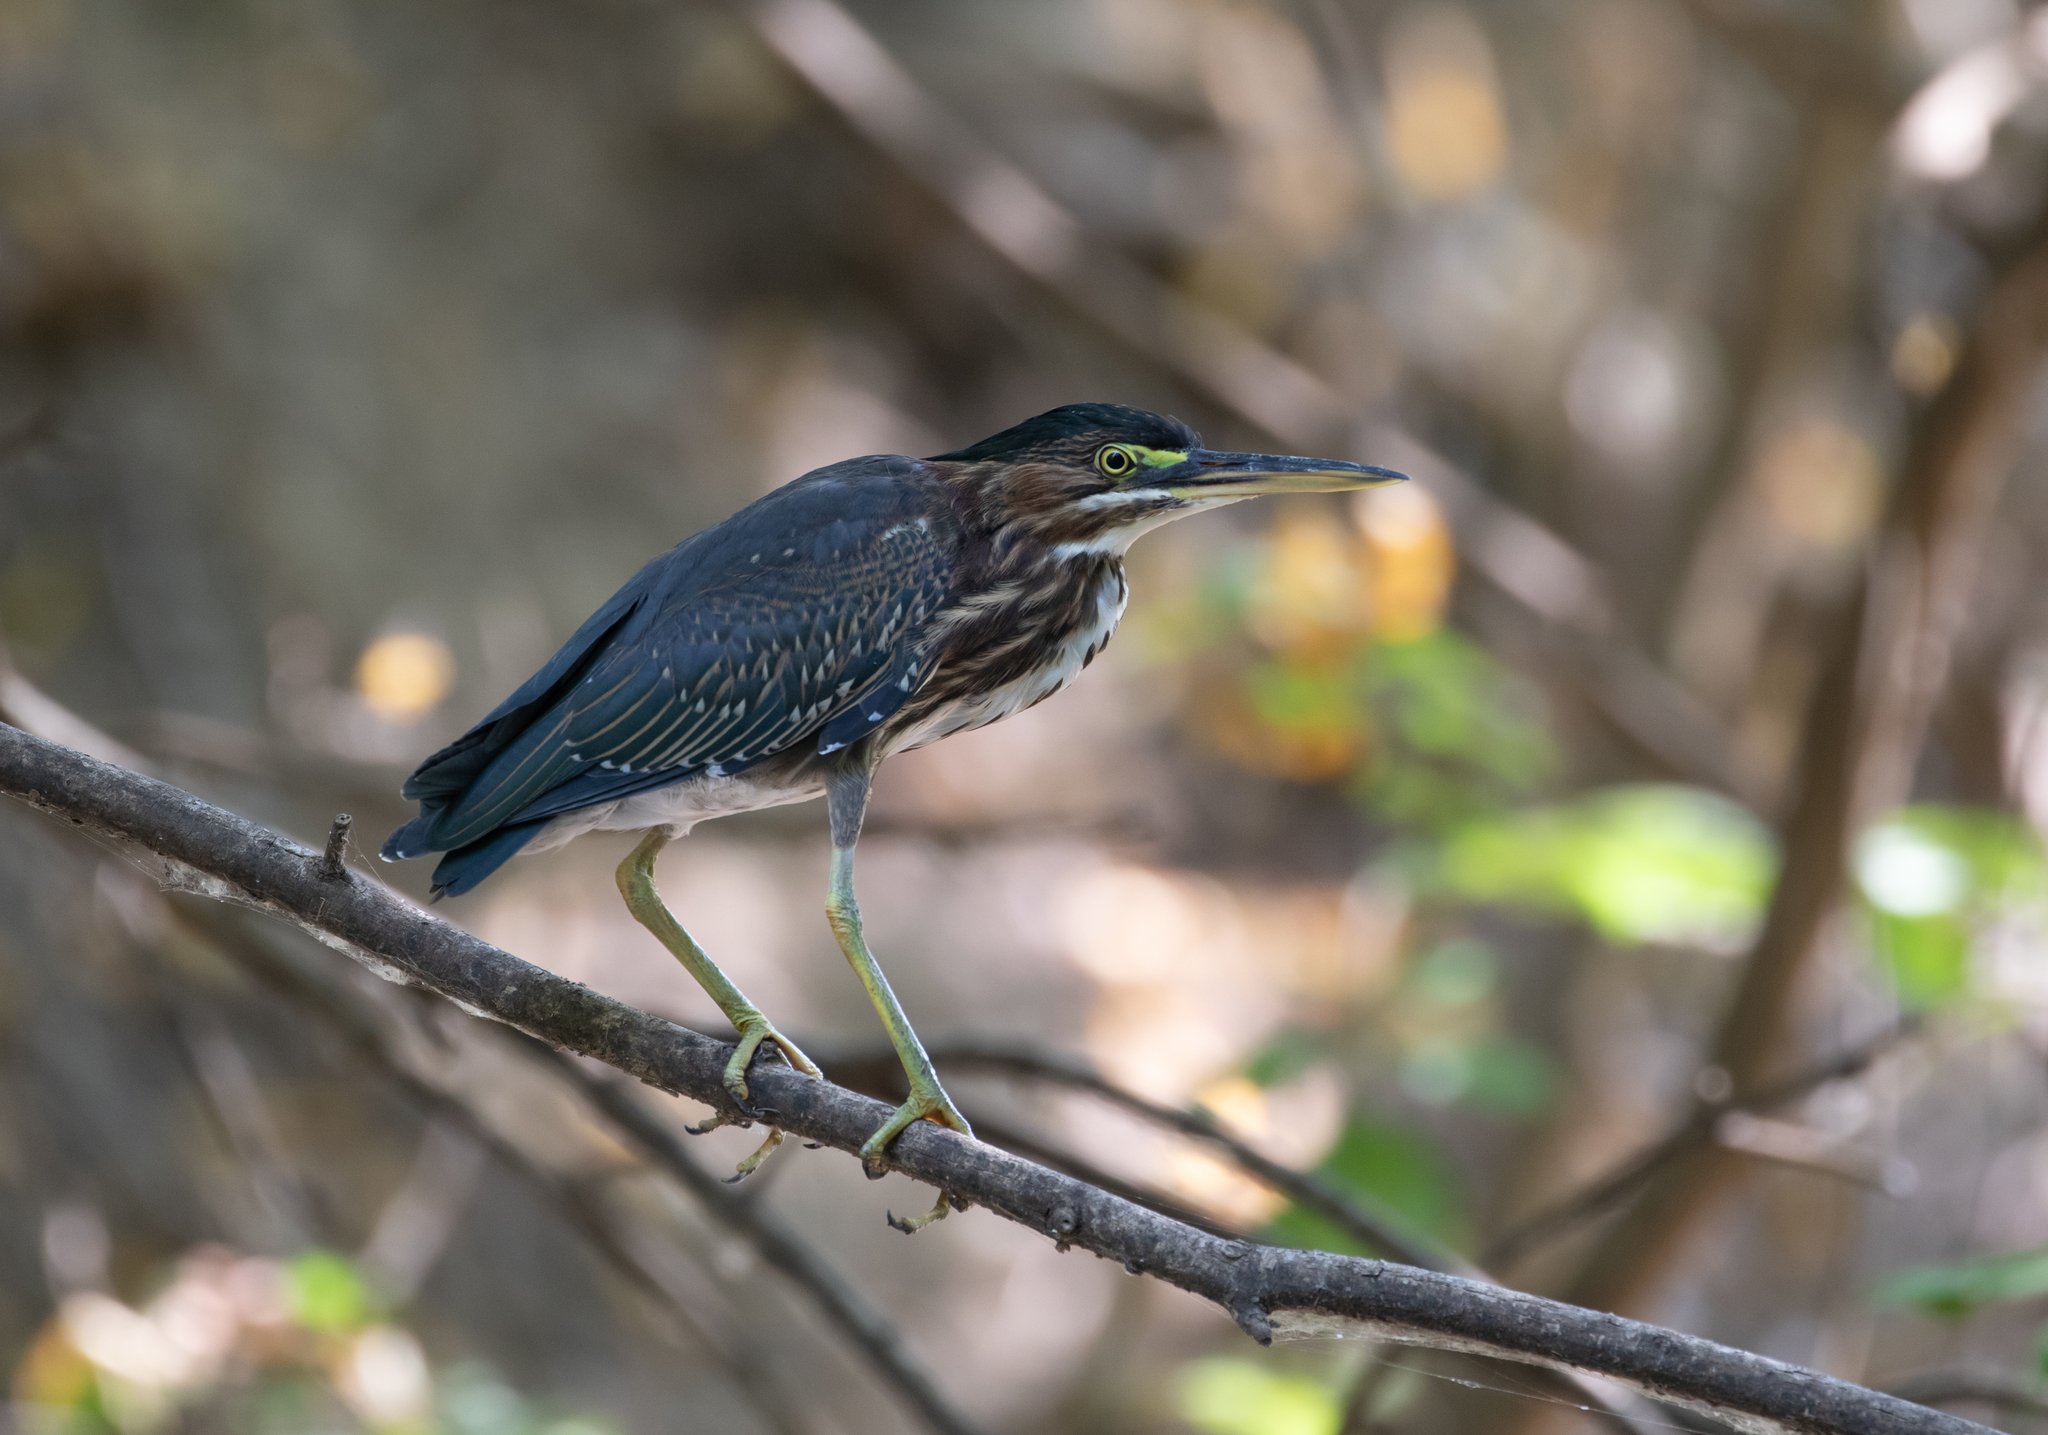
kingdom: Animalia
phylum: Chordata
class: Aves
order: Pelecaniformes
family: Ardeidae
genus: Butorides
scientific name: Butorides virescens
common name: Green heron
